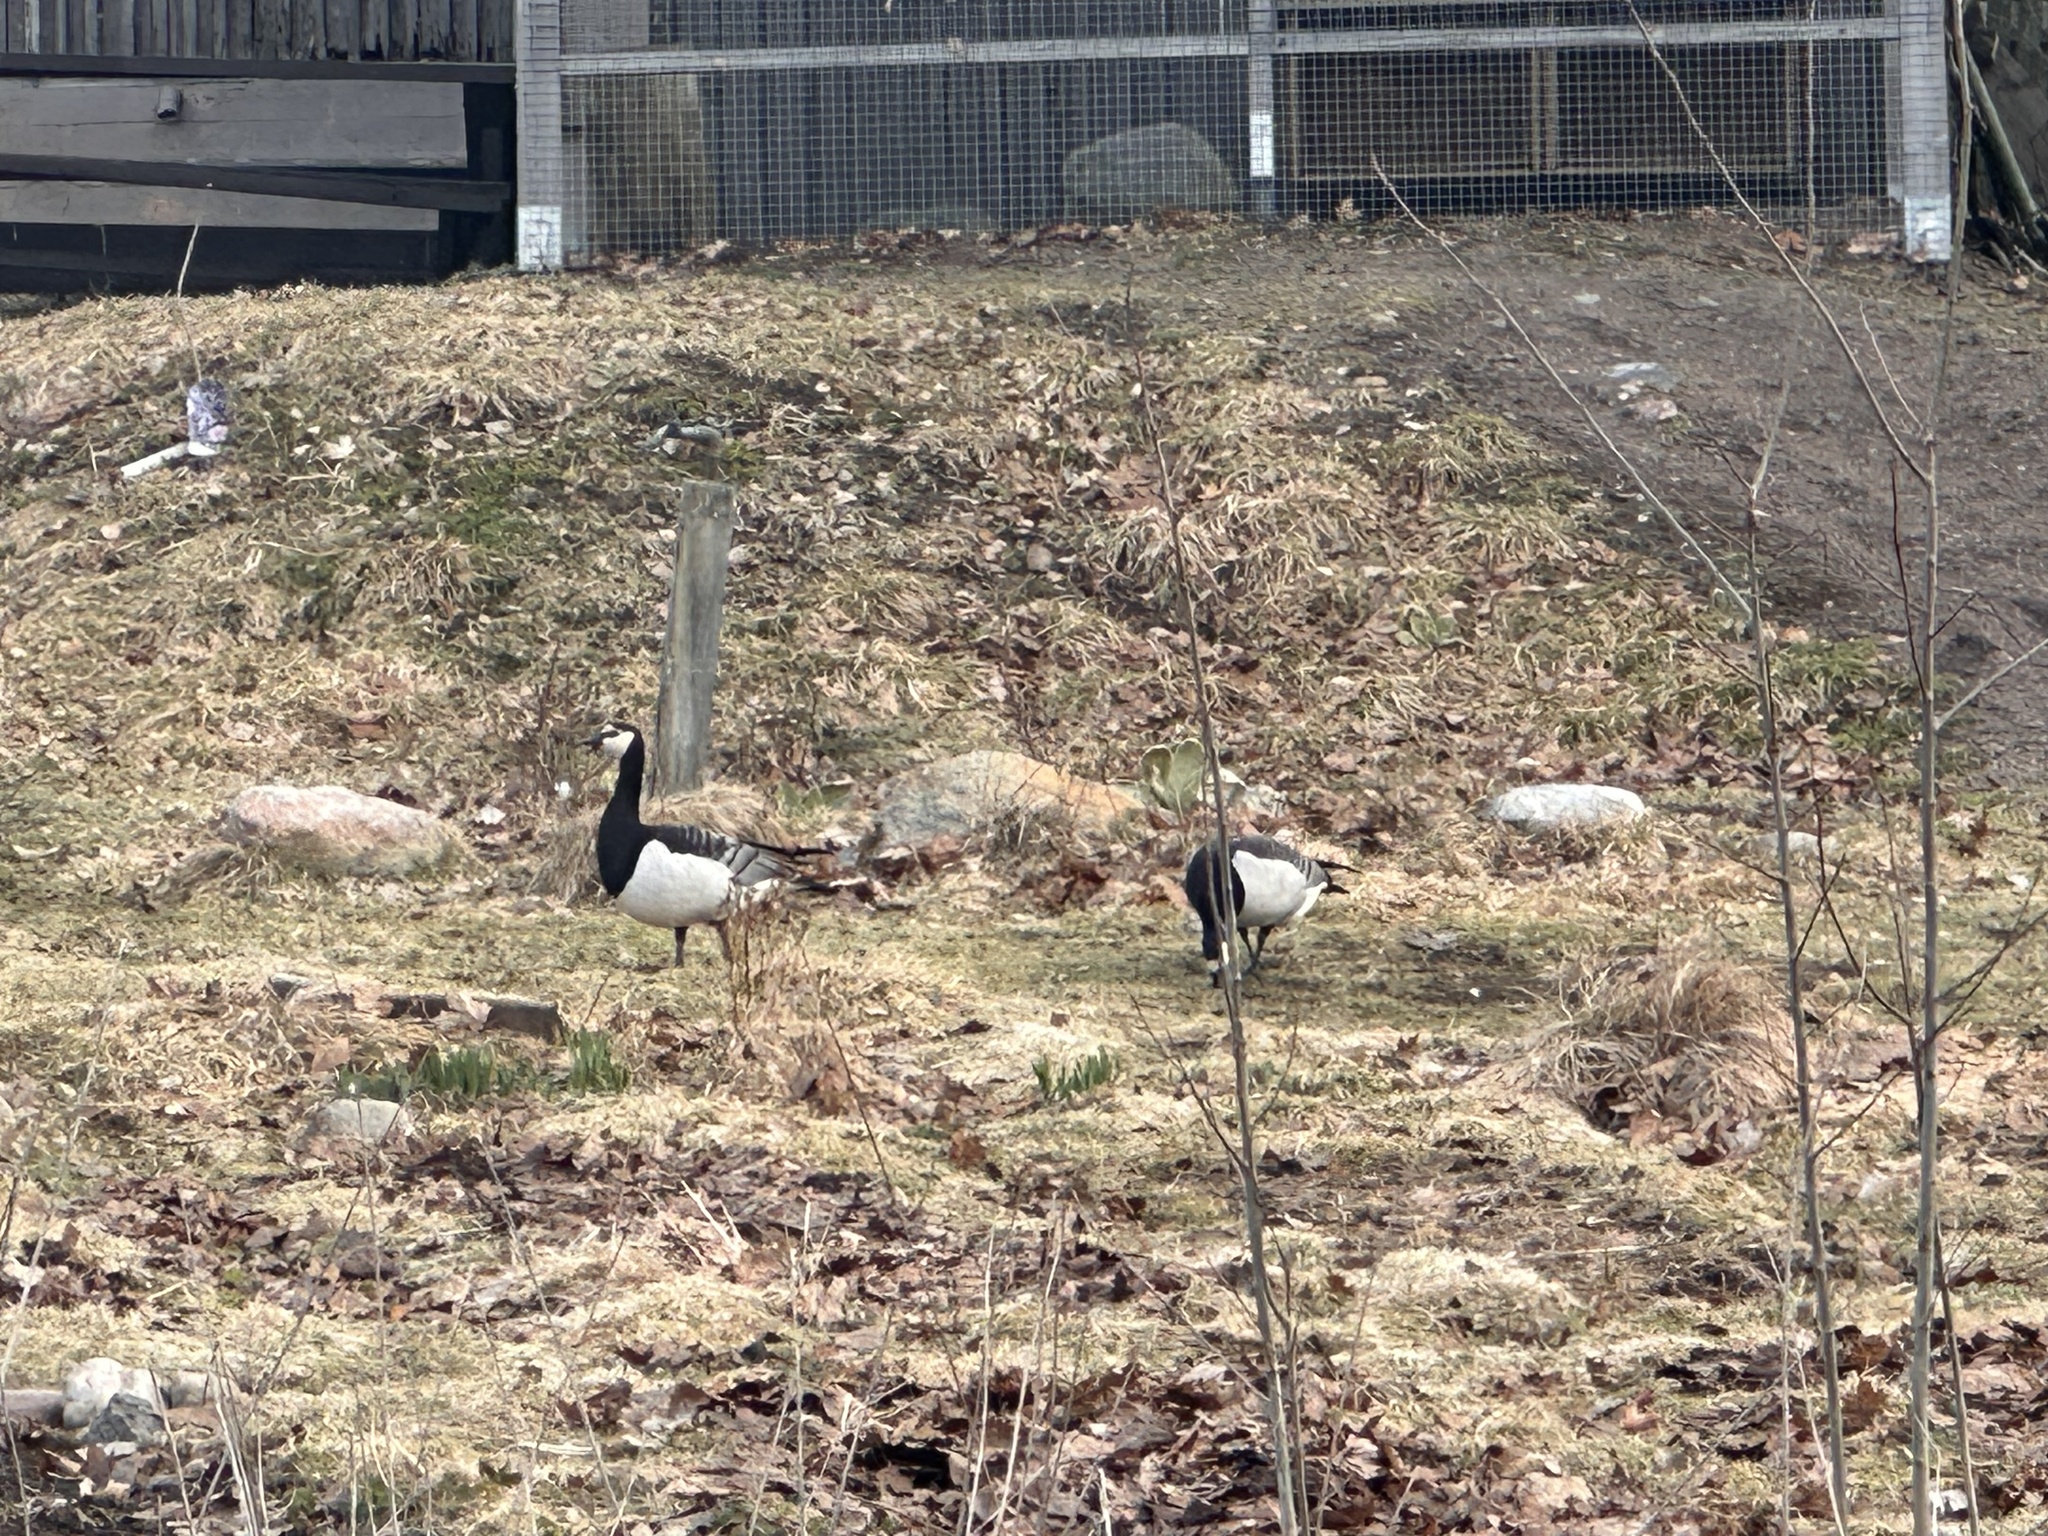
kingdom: Animalia
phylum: Chordata
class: Aves
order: Anseriformes
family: Anatidae
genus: Branta
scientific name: Branta leucopsis
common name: Barnacle goose
